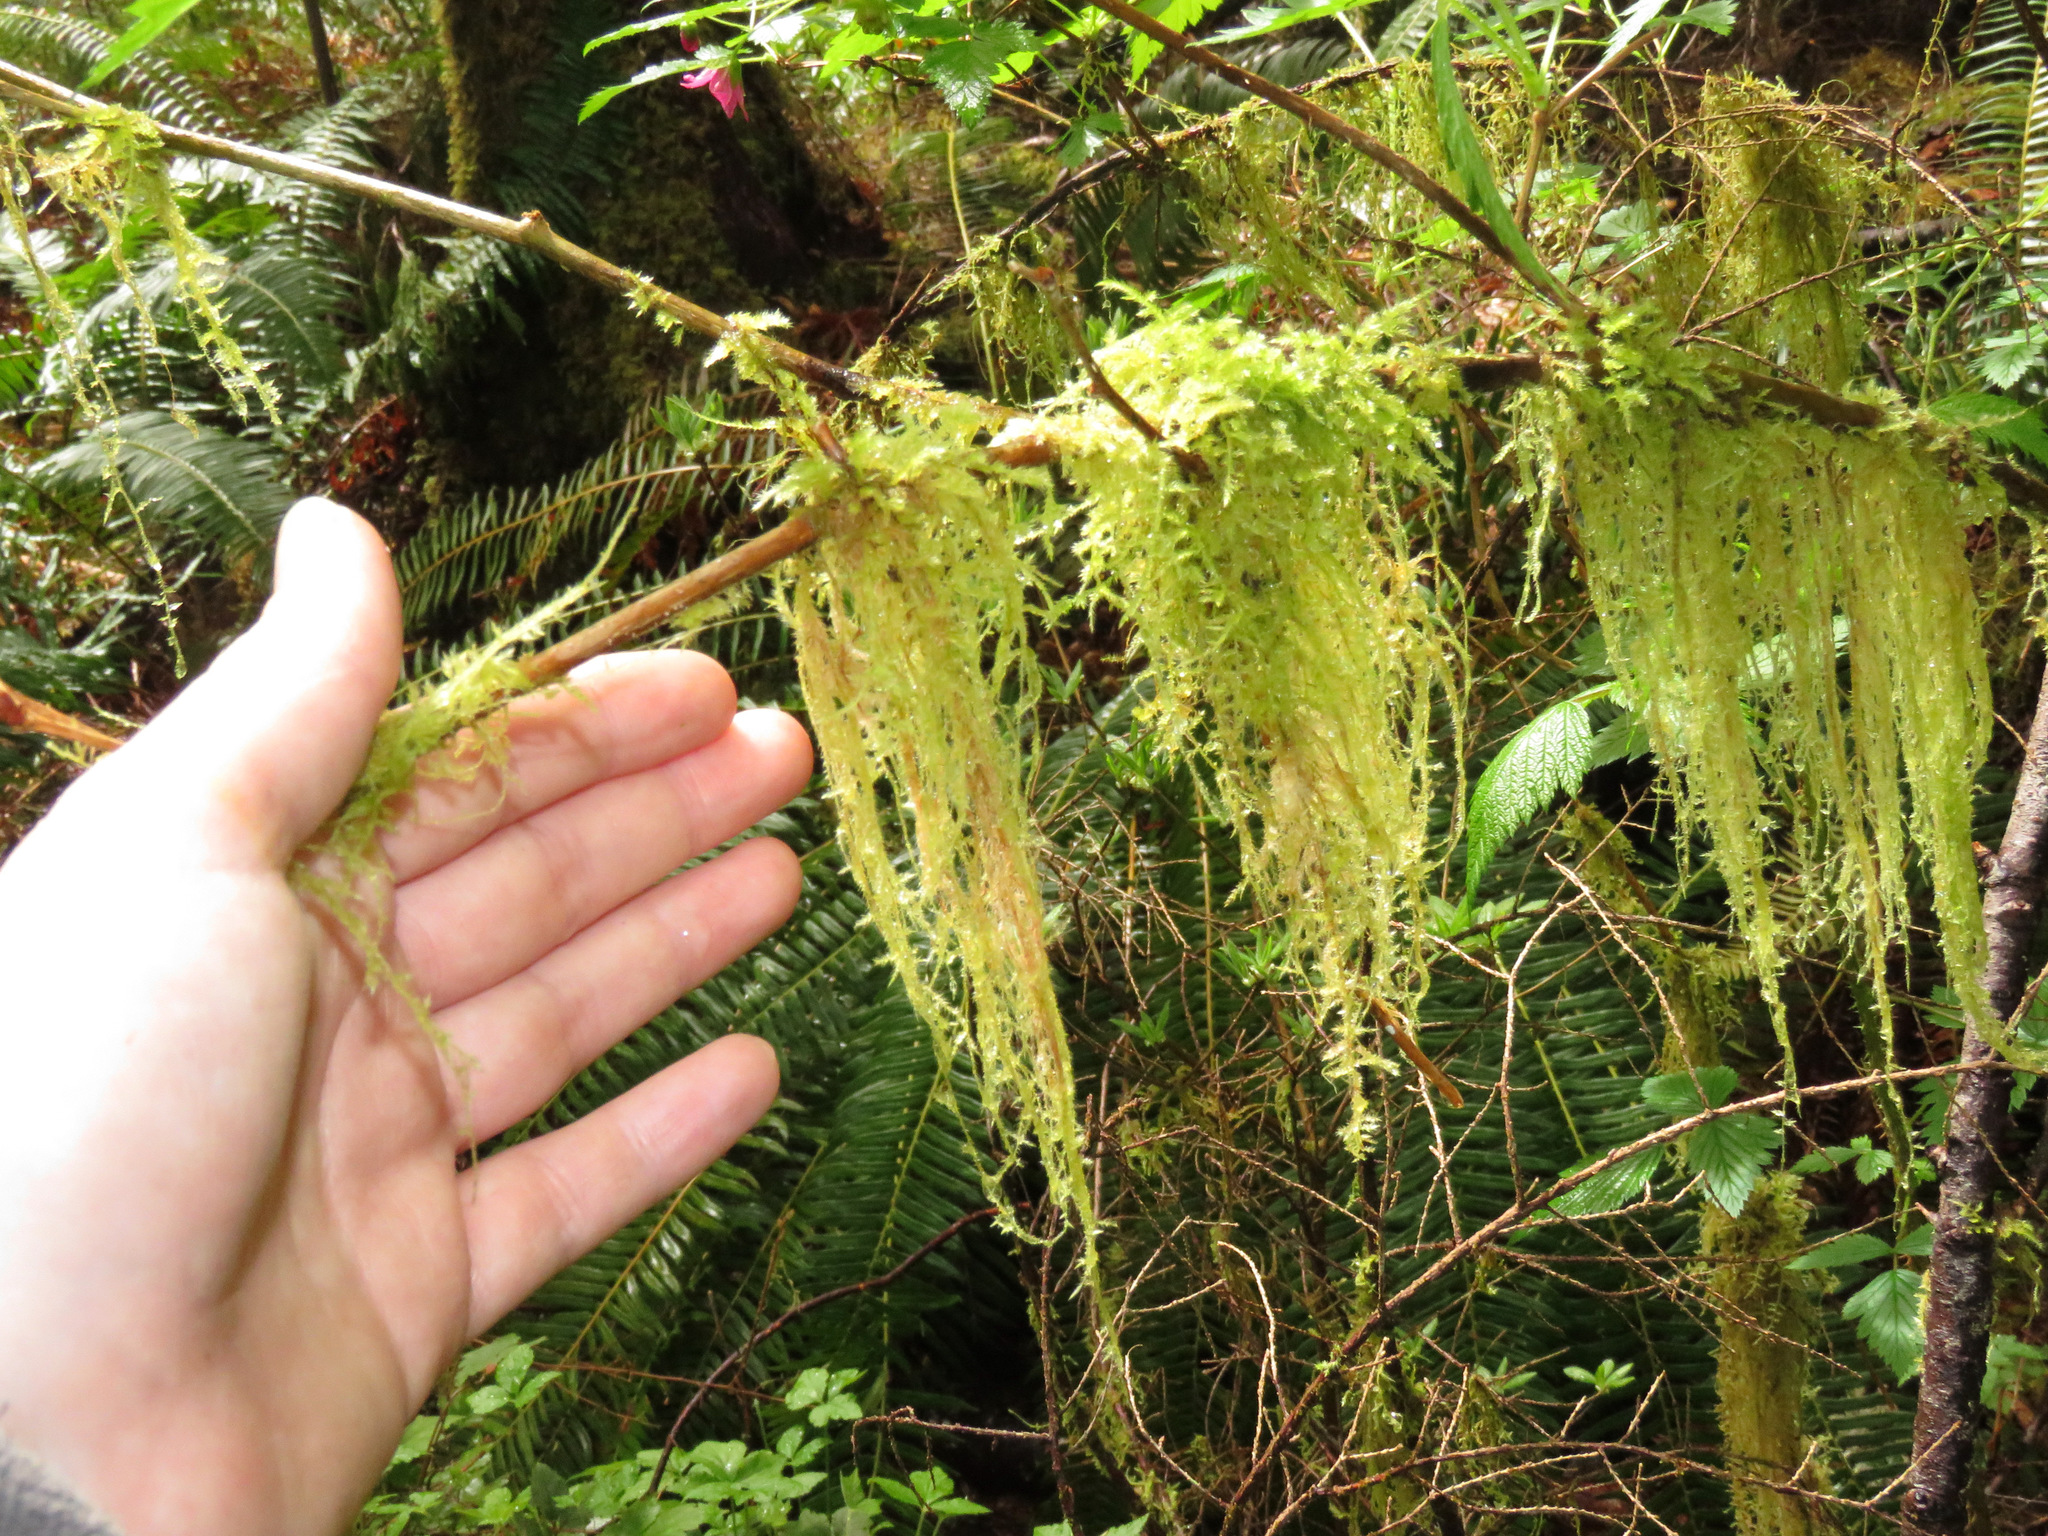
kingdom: Plantae
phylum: Bryophyta
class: Bryopsida
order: Hypnales
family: Lembophyllaceae
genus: Pseudisothecium
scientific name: Pseudisothecium stoloniferum
